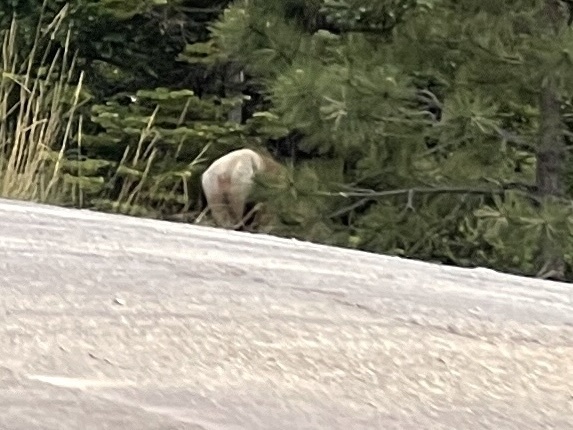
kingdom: Animalia
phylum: Chordata
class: Mammalia
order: Artiodactyla
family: Cervidae
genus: Cervus
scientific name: Cervus elaphus
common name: Red deer
